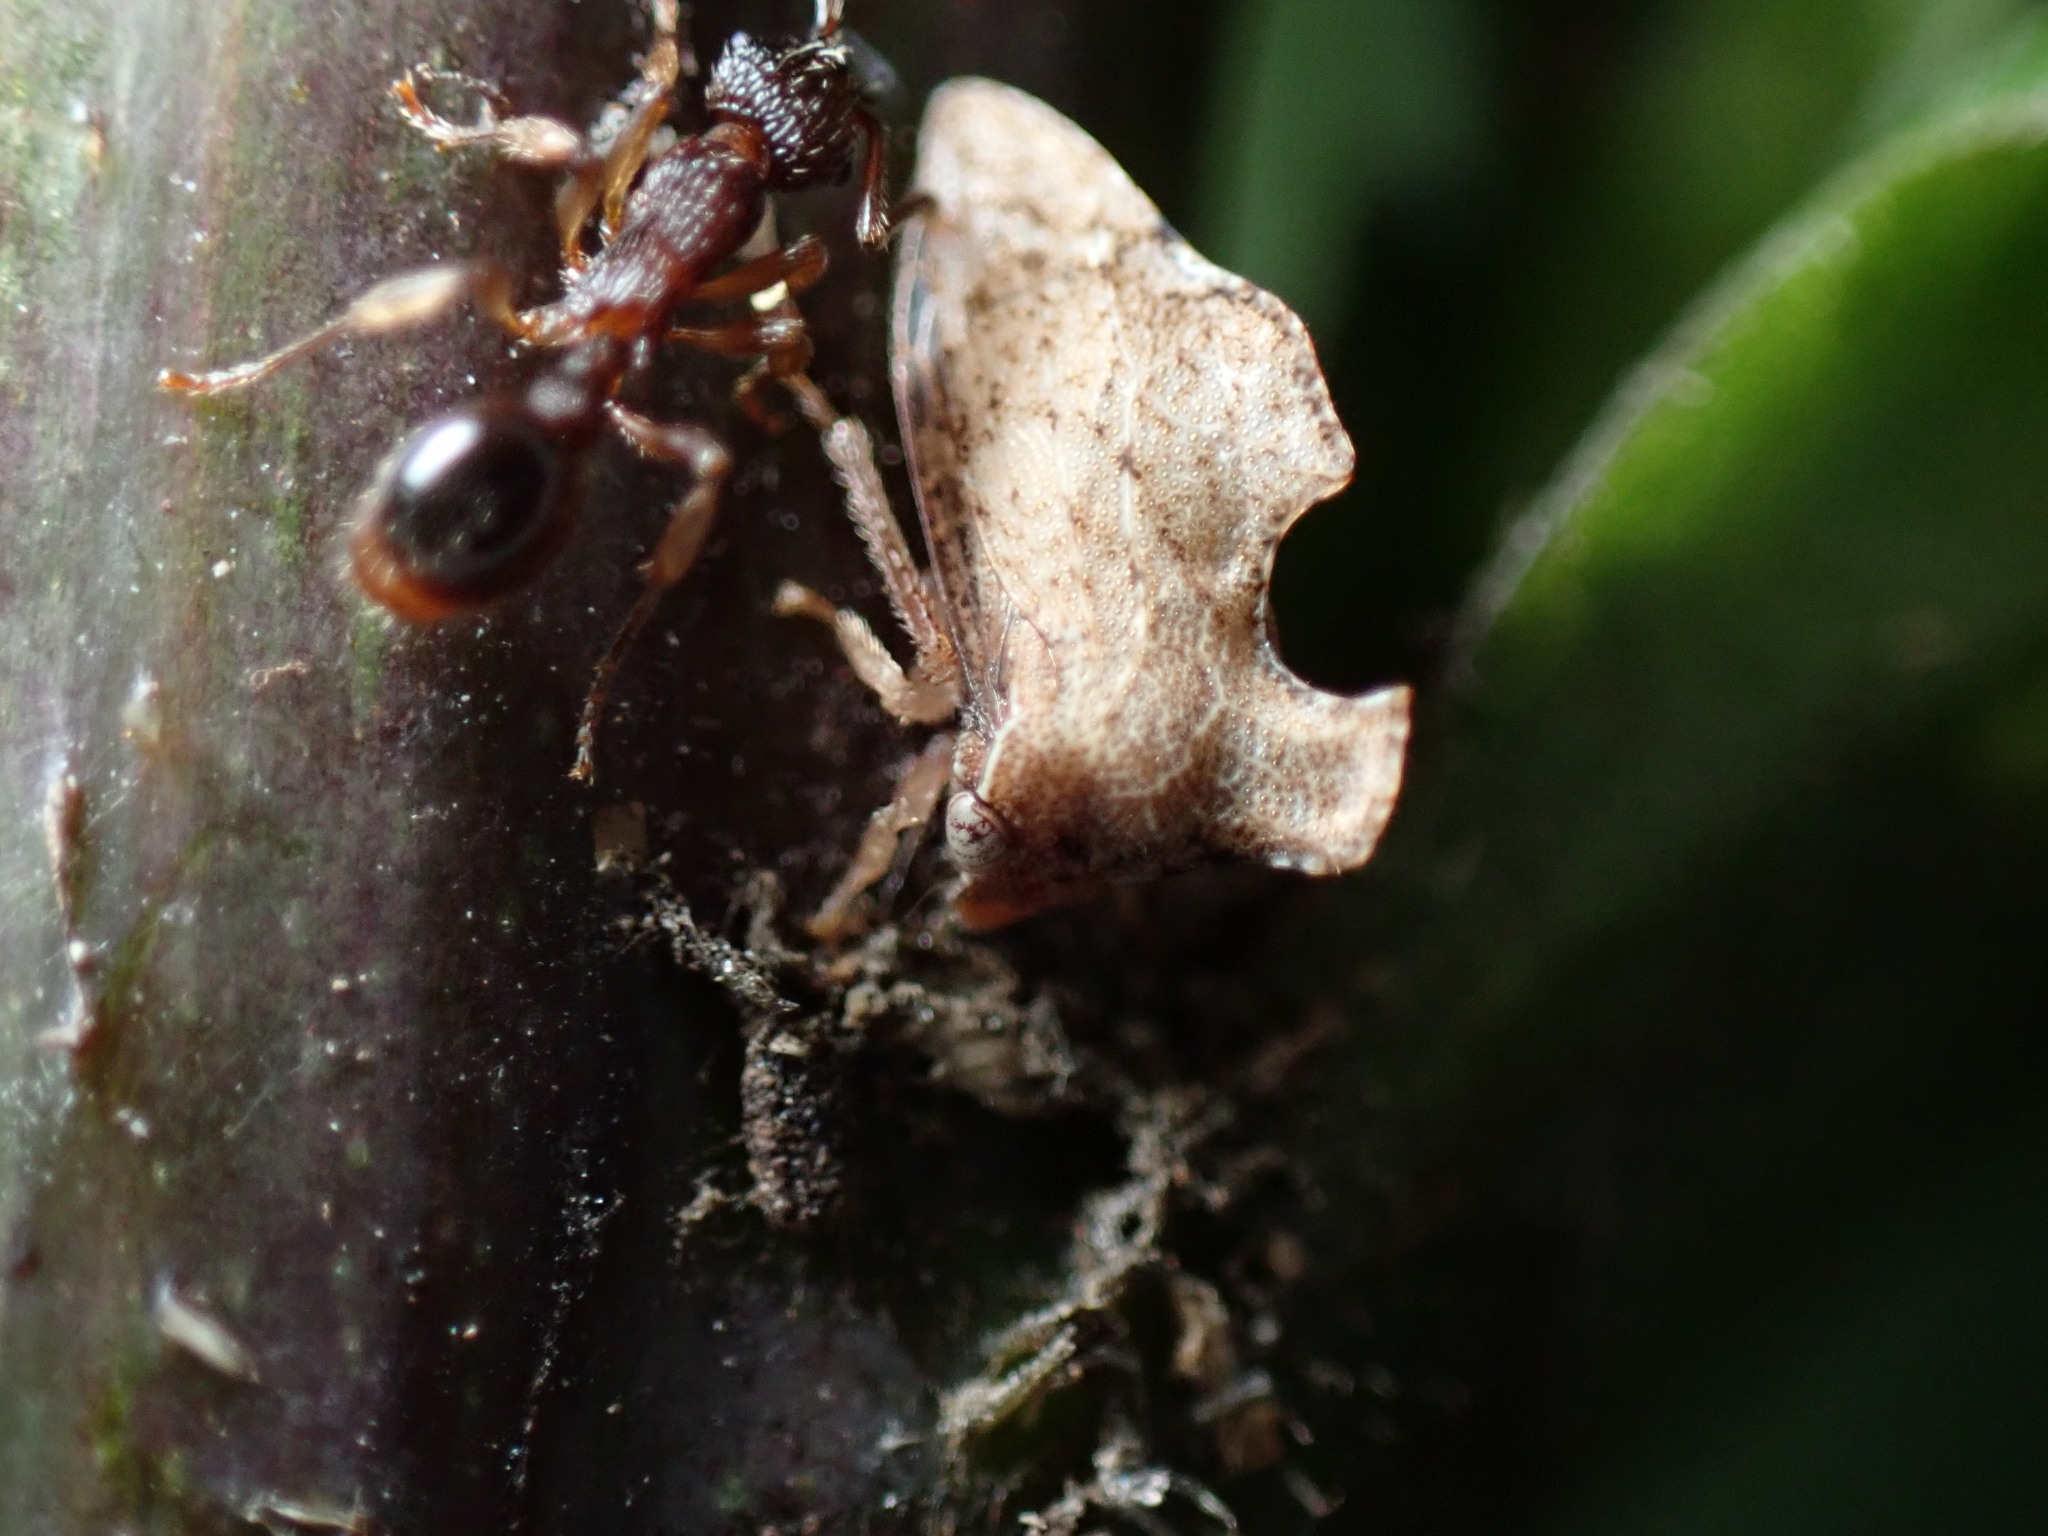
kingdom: Animalia
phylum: Arthropoda
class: Insecta
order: Hemiptera
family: Membracidae
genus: Entylia
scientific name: Entylia carinata
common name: Keeled treehopper
